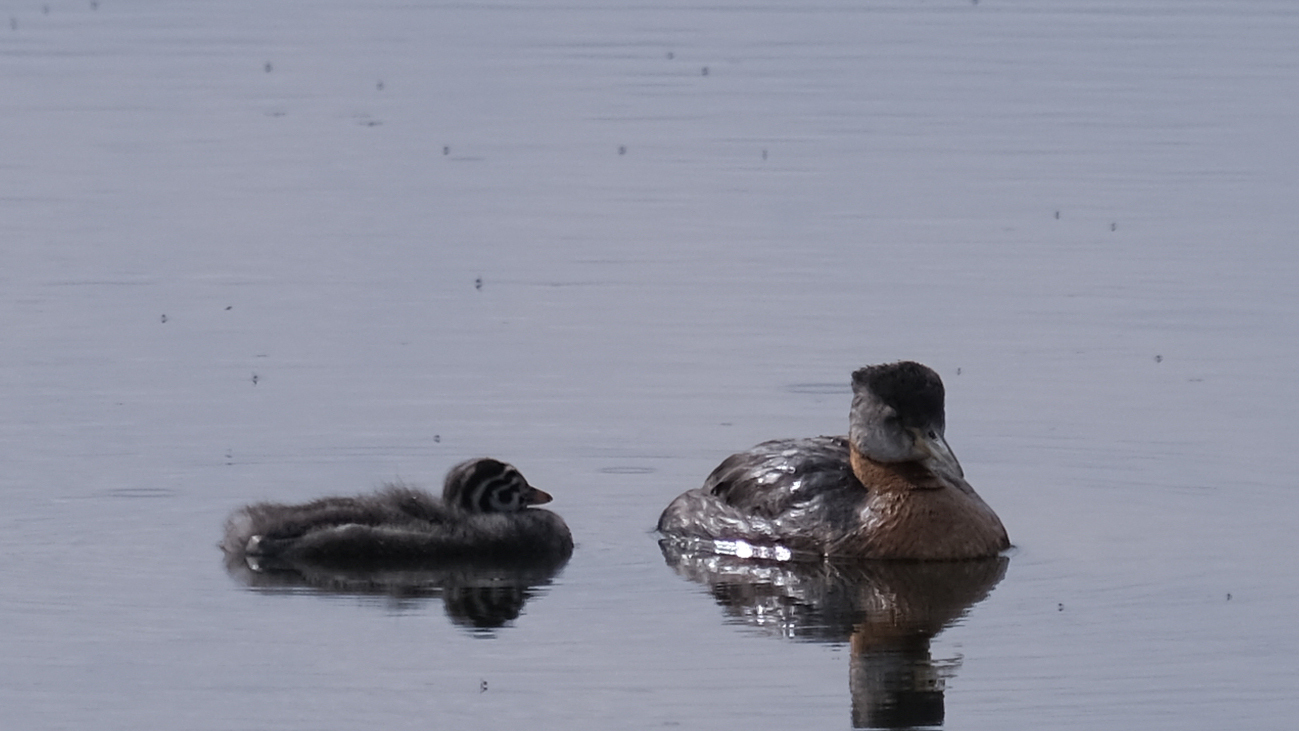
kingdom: Animalia
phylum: Chordata
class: Aves
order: Podicipediformes
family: Podicipedidae
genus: Podiceps
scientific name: Podiceps grisegena
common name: Red-necked grebe
